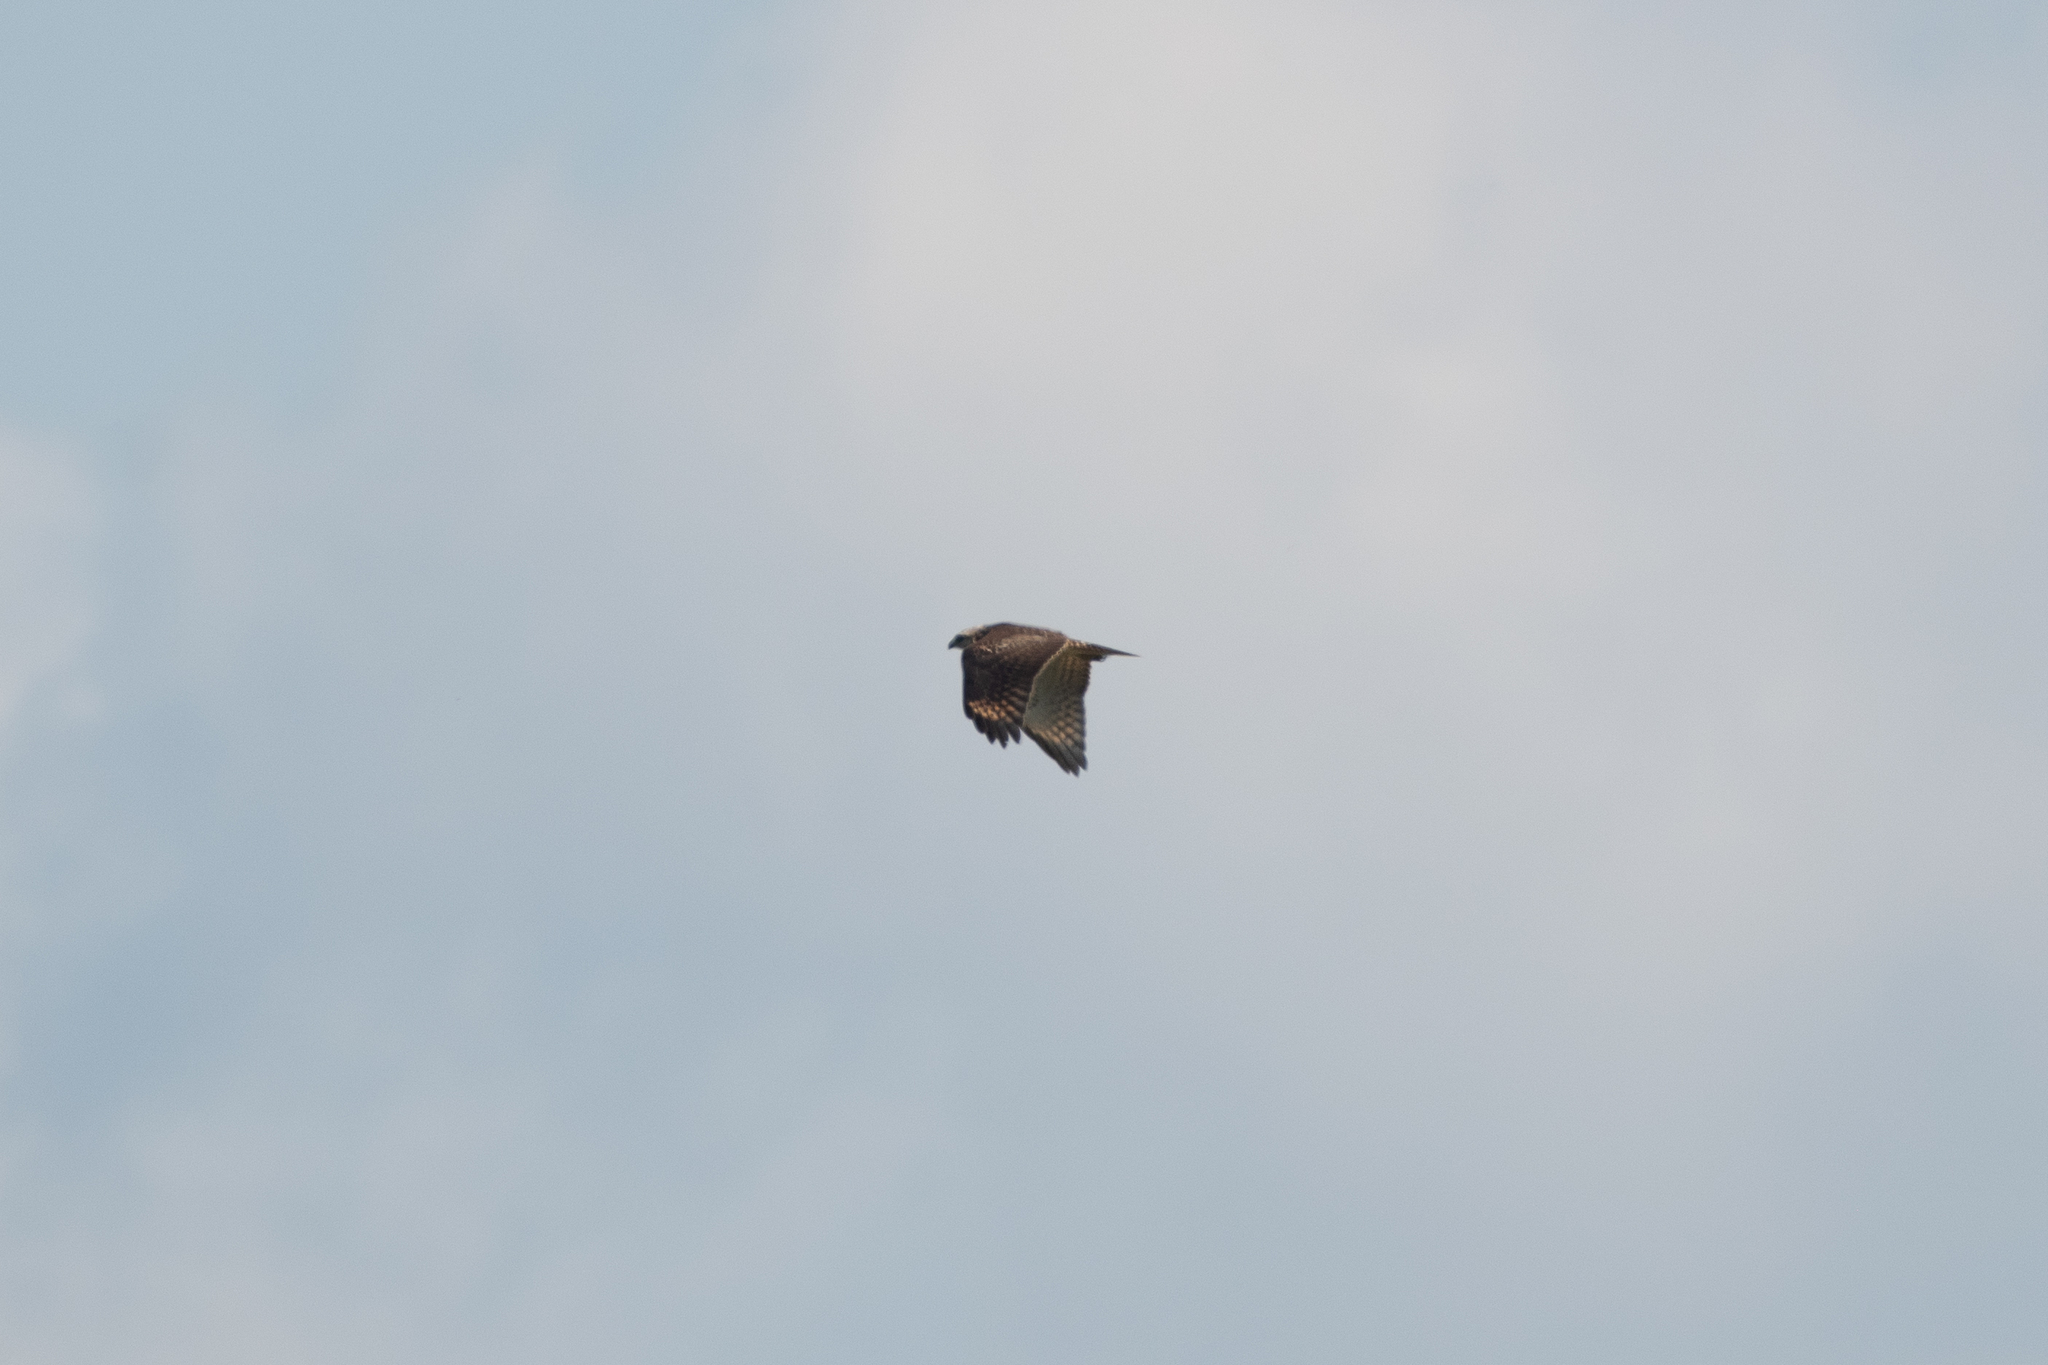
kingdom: Animalia
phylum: Chordata
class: Aves
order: Accipitriformes
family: Accipitridae
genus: Buteo
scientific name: Buteo lineatus
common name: Red-shouldered hawk
